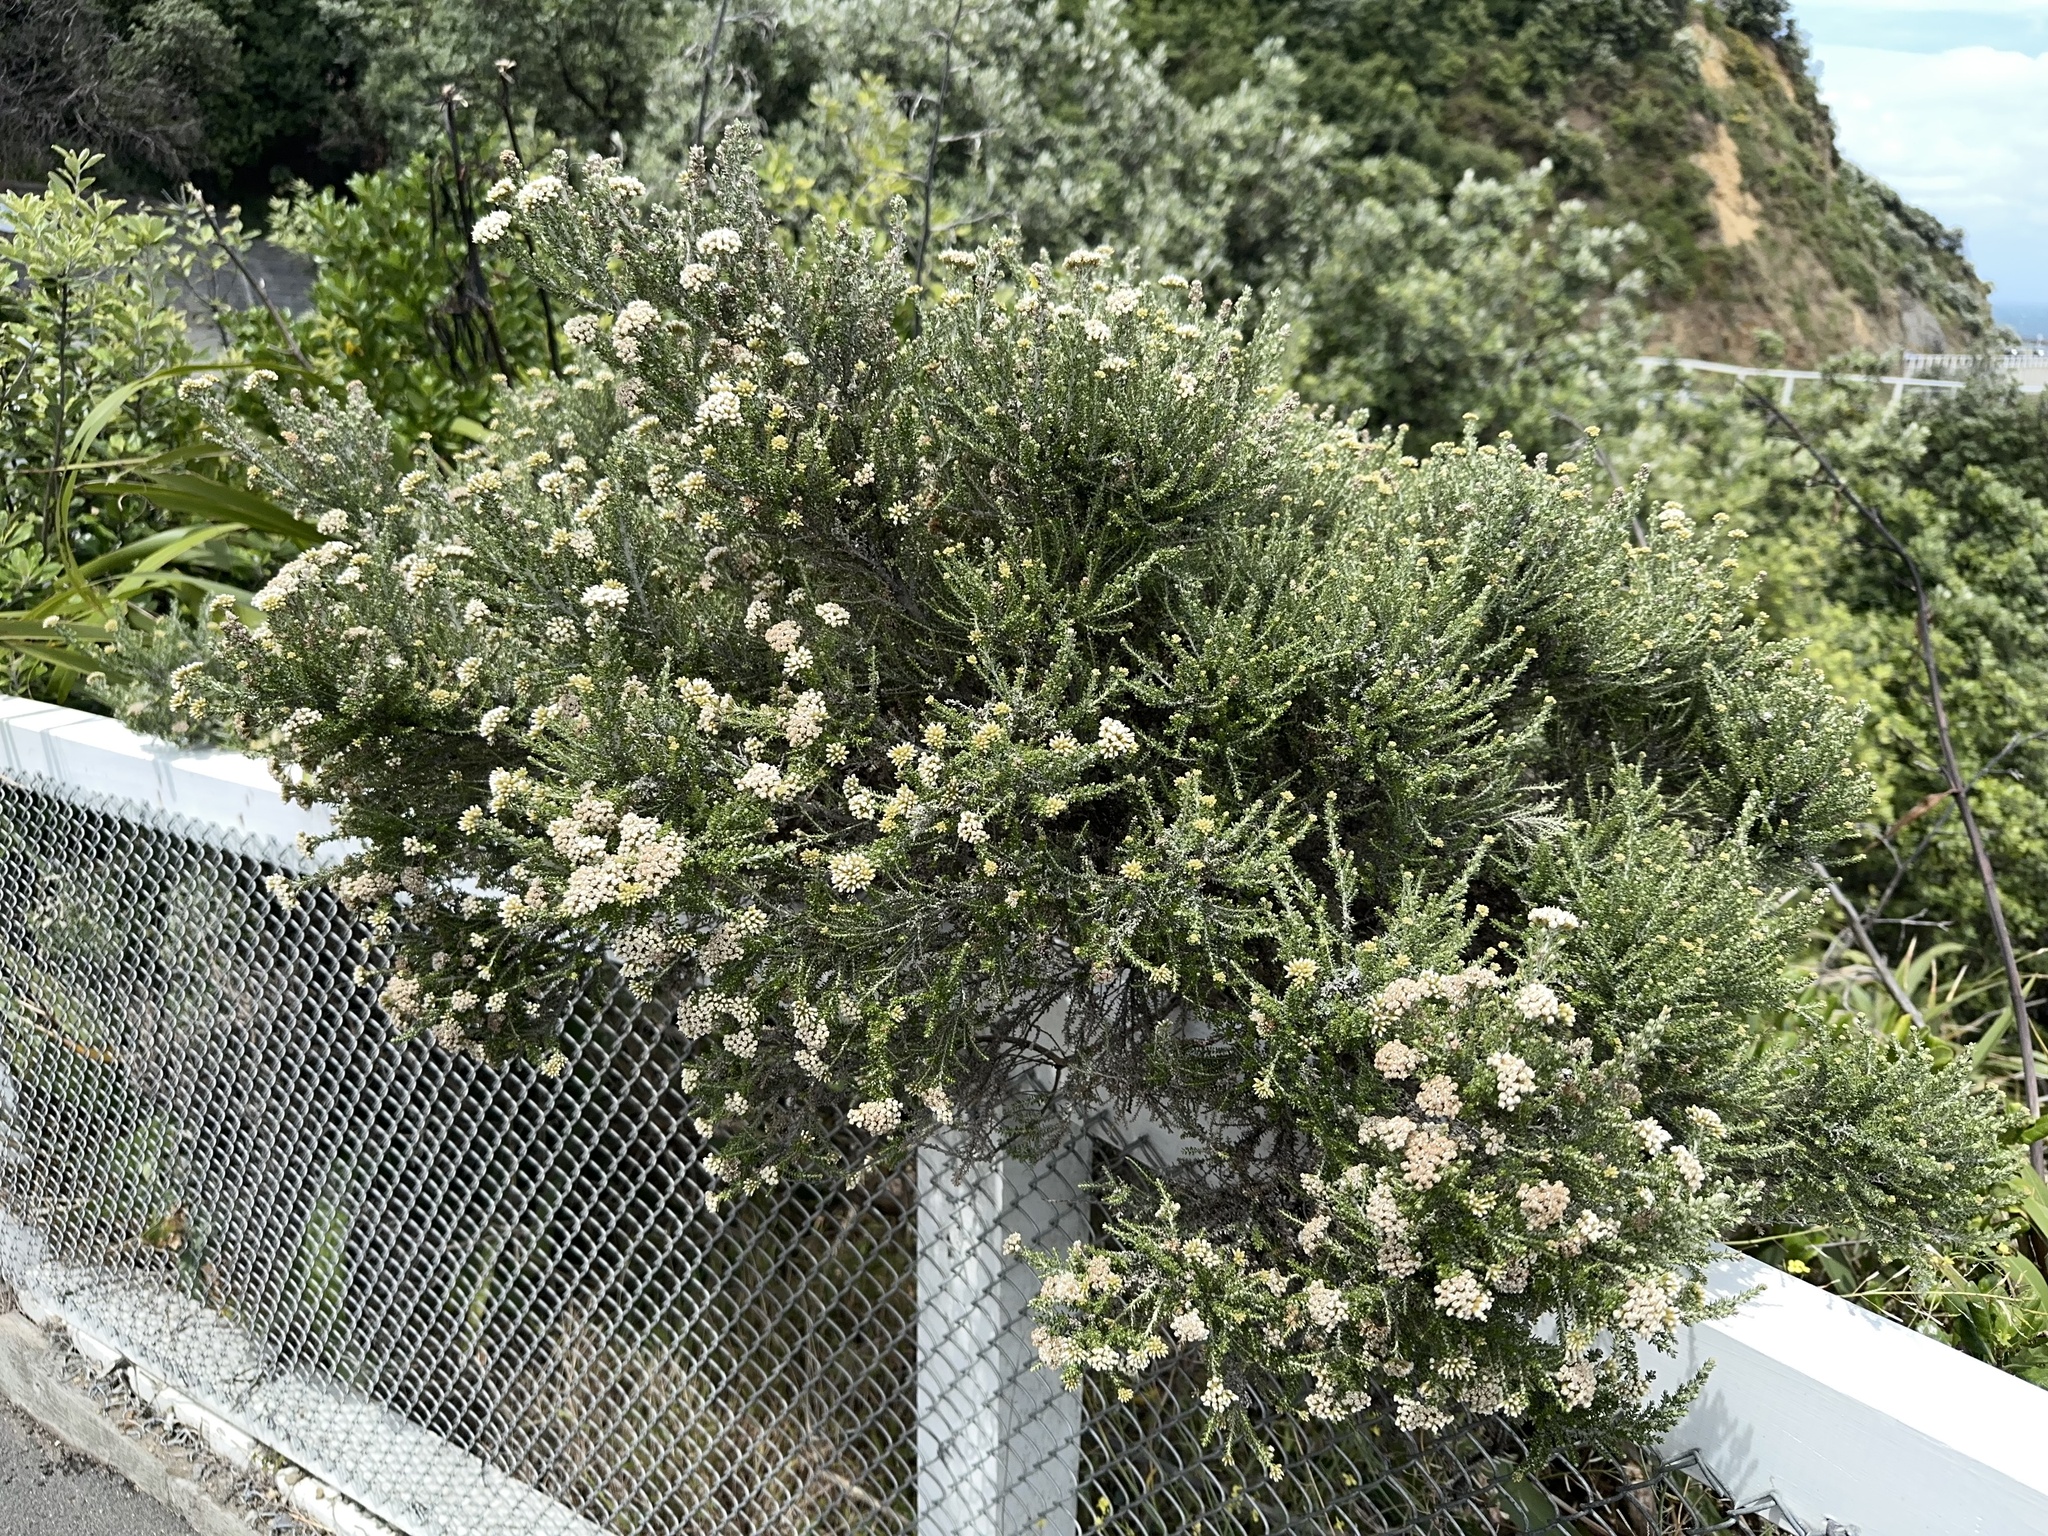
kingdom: Plantae
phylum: Tracheophyta
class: Magnoliopsida
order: Asterales
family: Asteraceae
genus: Ozothamnus
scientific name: Ozothamnus leptophyllus
